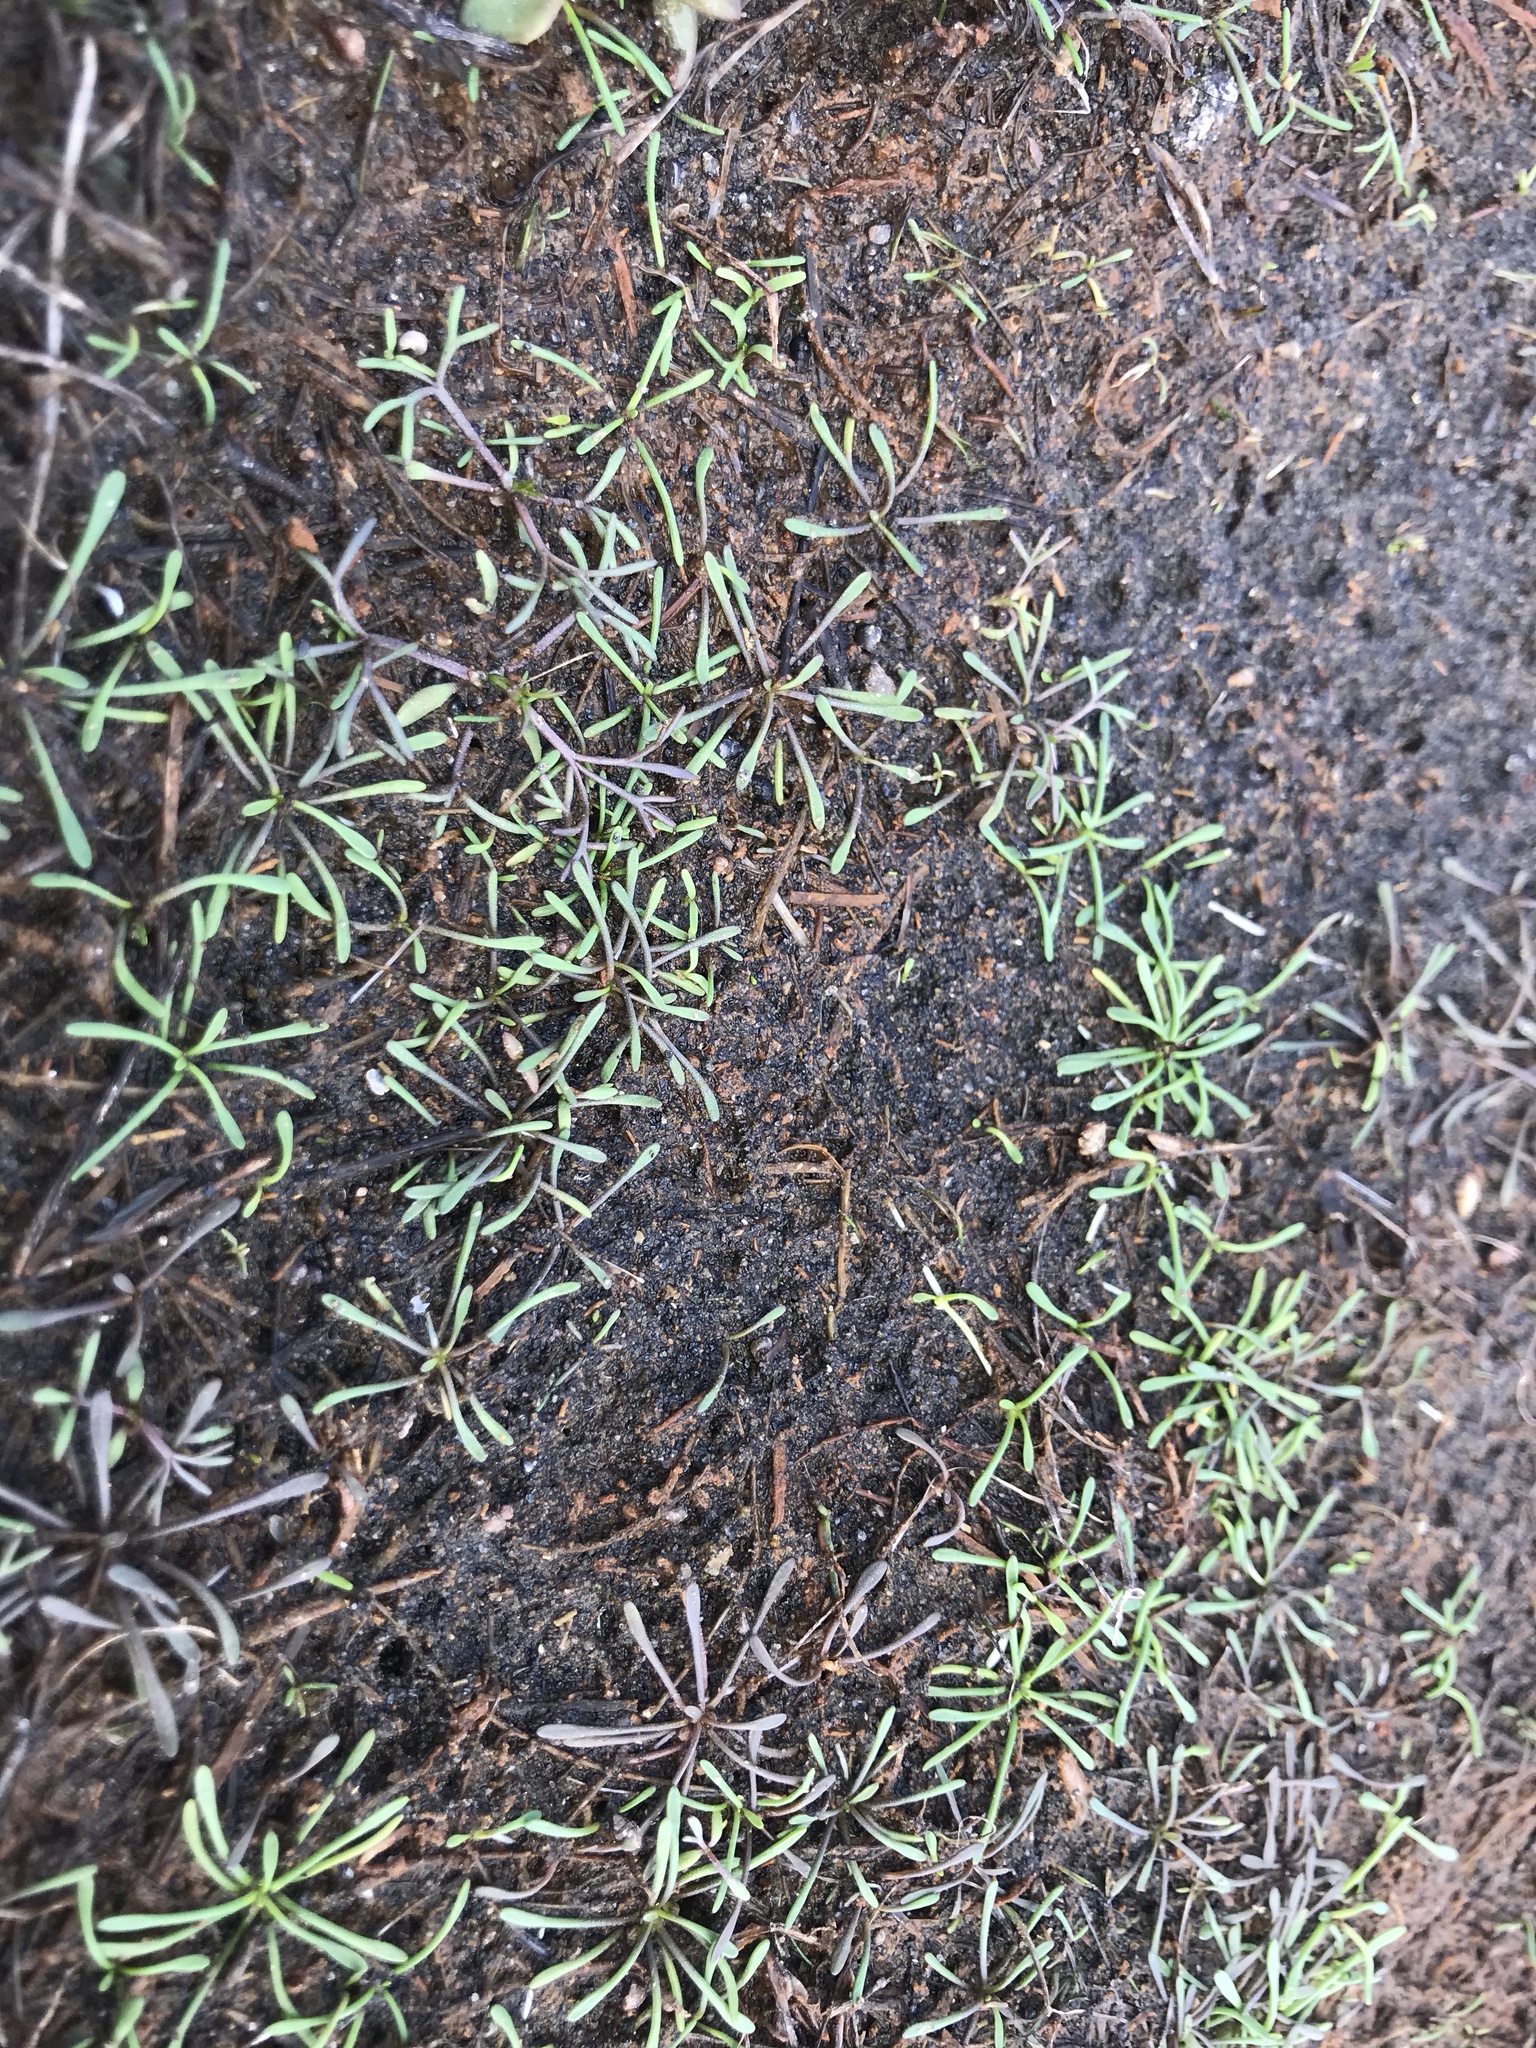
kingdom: Plantae
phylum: Tracheophyta
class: Magnoliopsida
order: Lamiales
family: Scrophulariaceae
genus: Limosella
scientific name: Limosella australis
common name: Welsh mudwort
